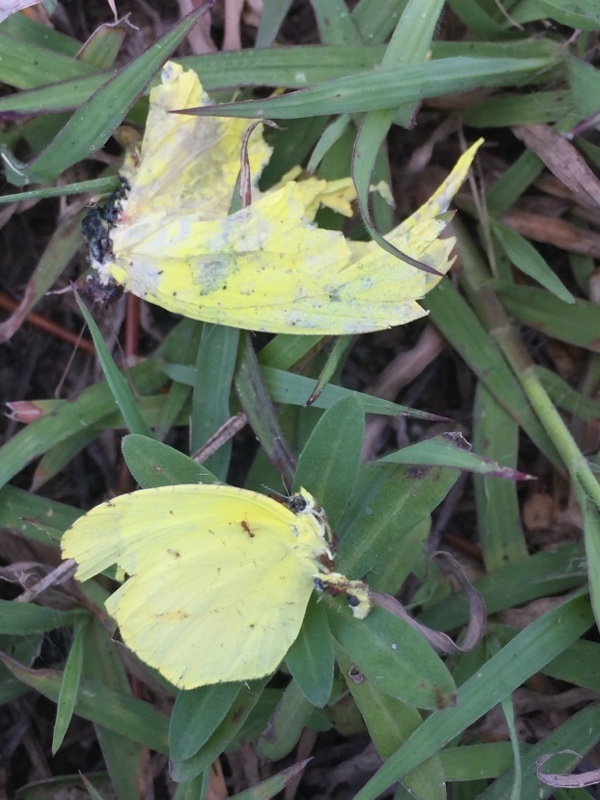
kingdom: Animalia
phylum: Arthropoda
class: Insecta
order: Lepidoptera
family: Pieridae
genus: Pyrisitia
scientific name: Pyrisitia lisa
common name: Little yellow
